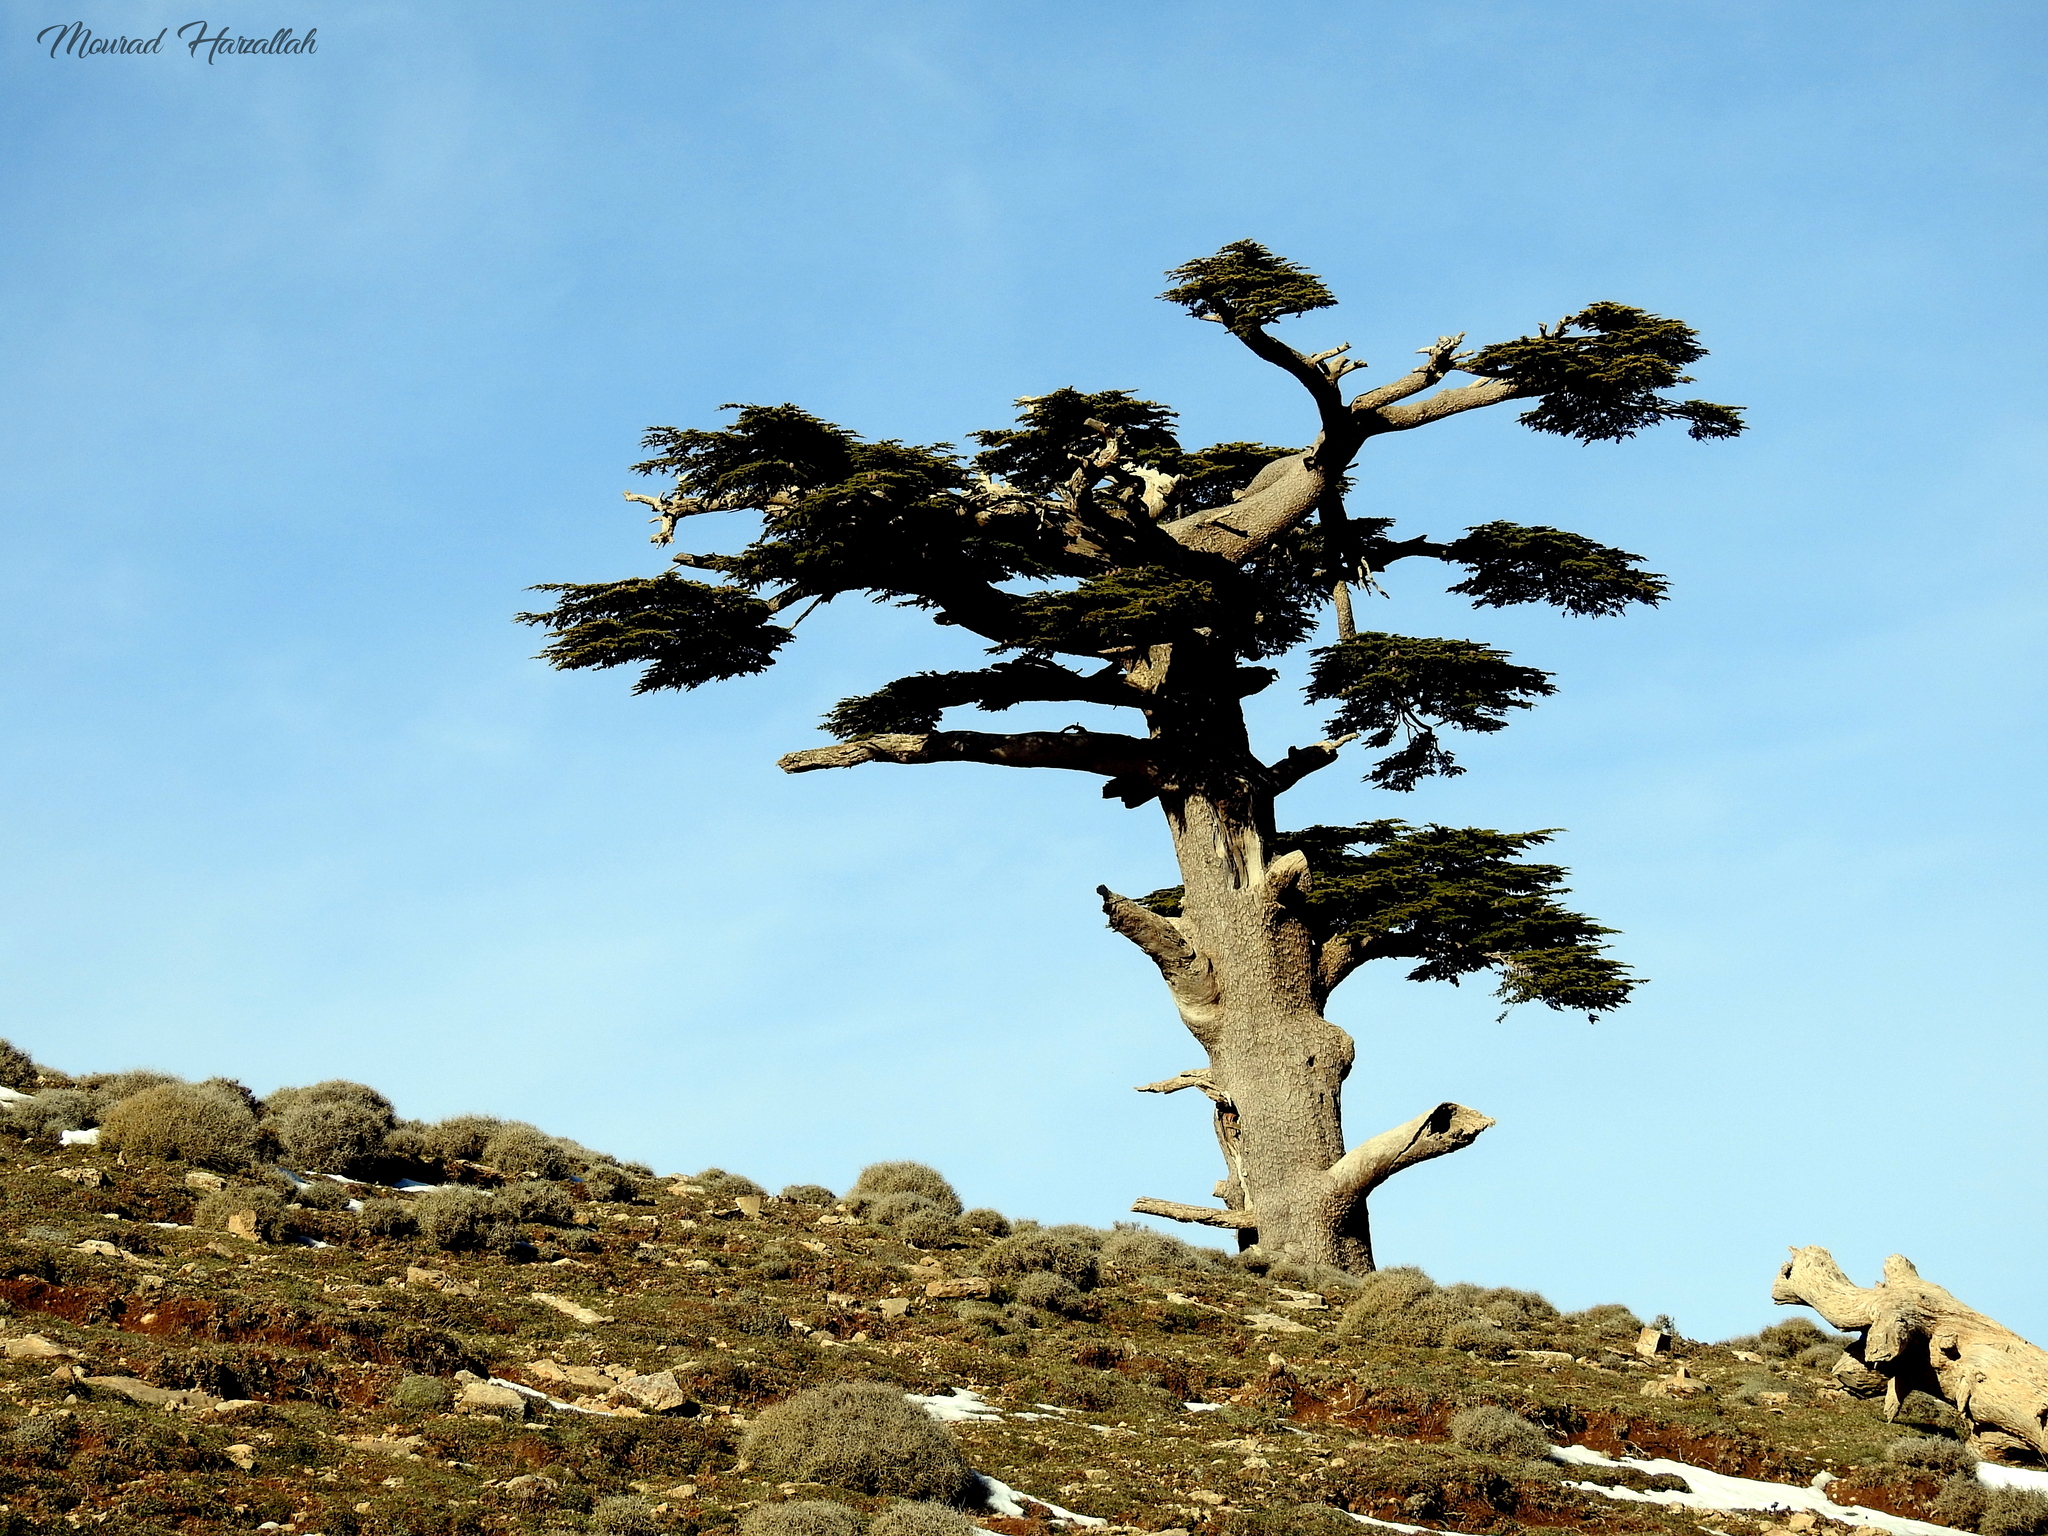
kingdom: Plantae
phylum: Tracheophyta
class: Pinopsida
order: Pinales
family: Pinaceae
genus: Cedrus
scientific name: Cedrus atlantica
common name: Atlas cedar
